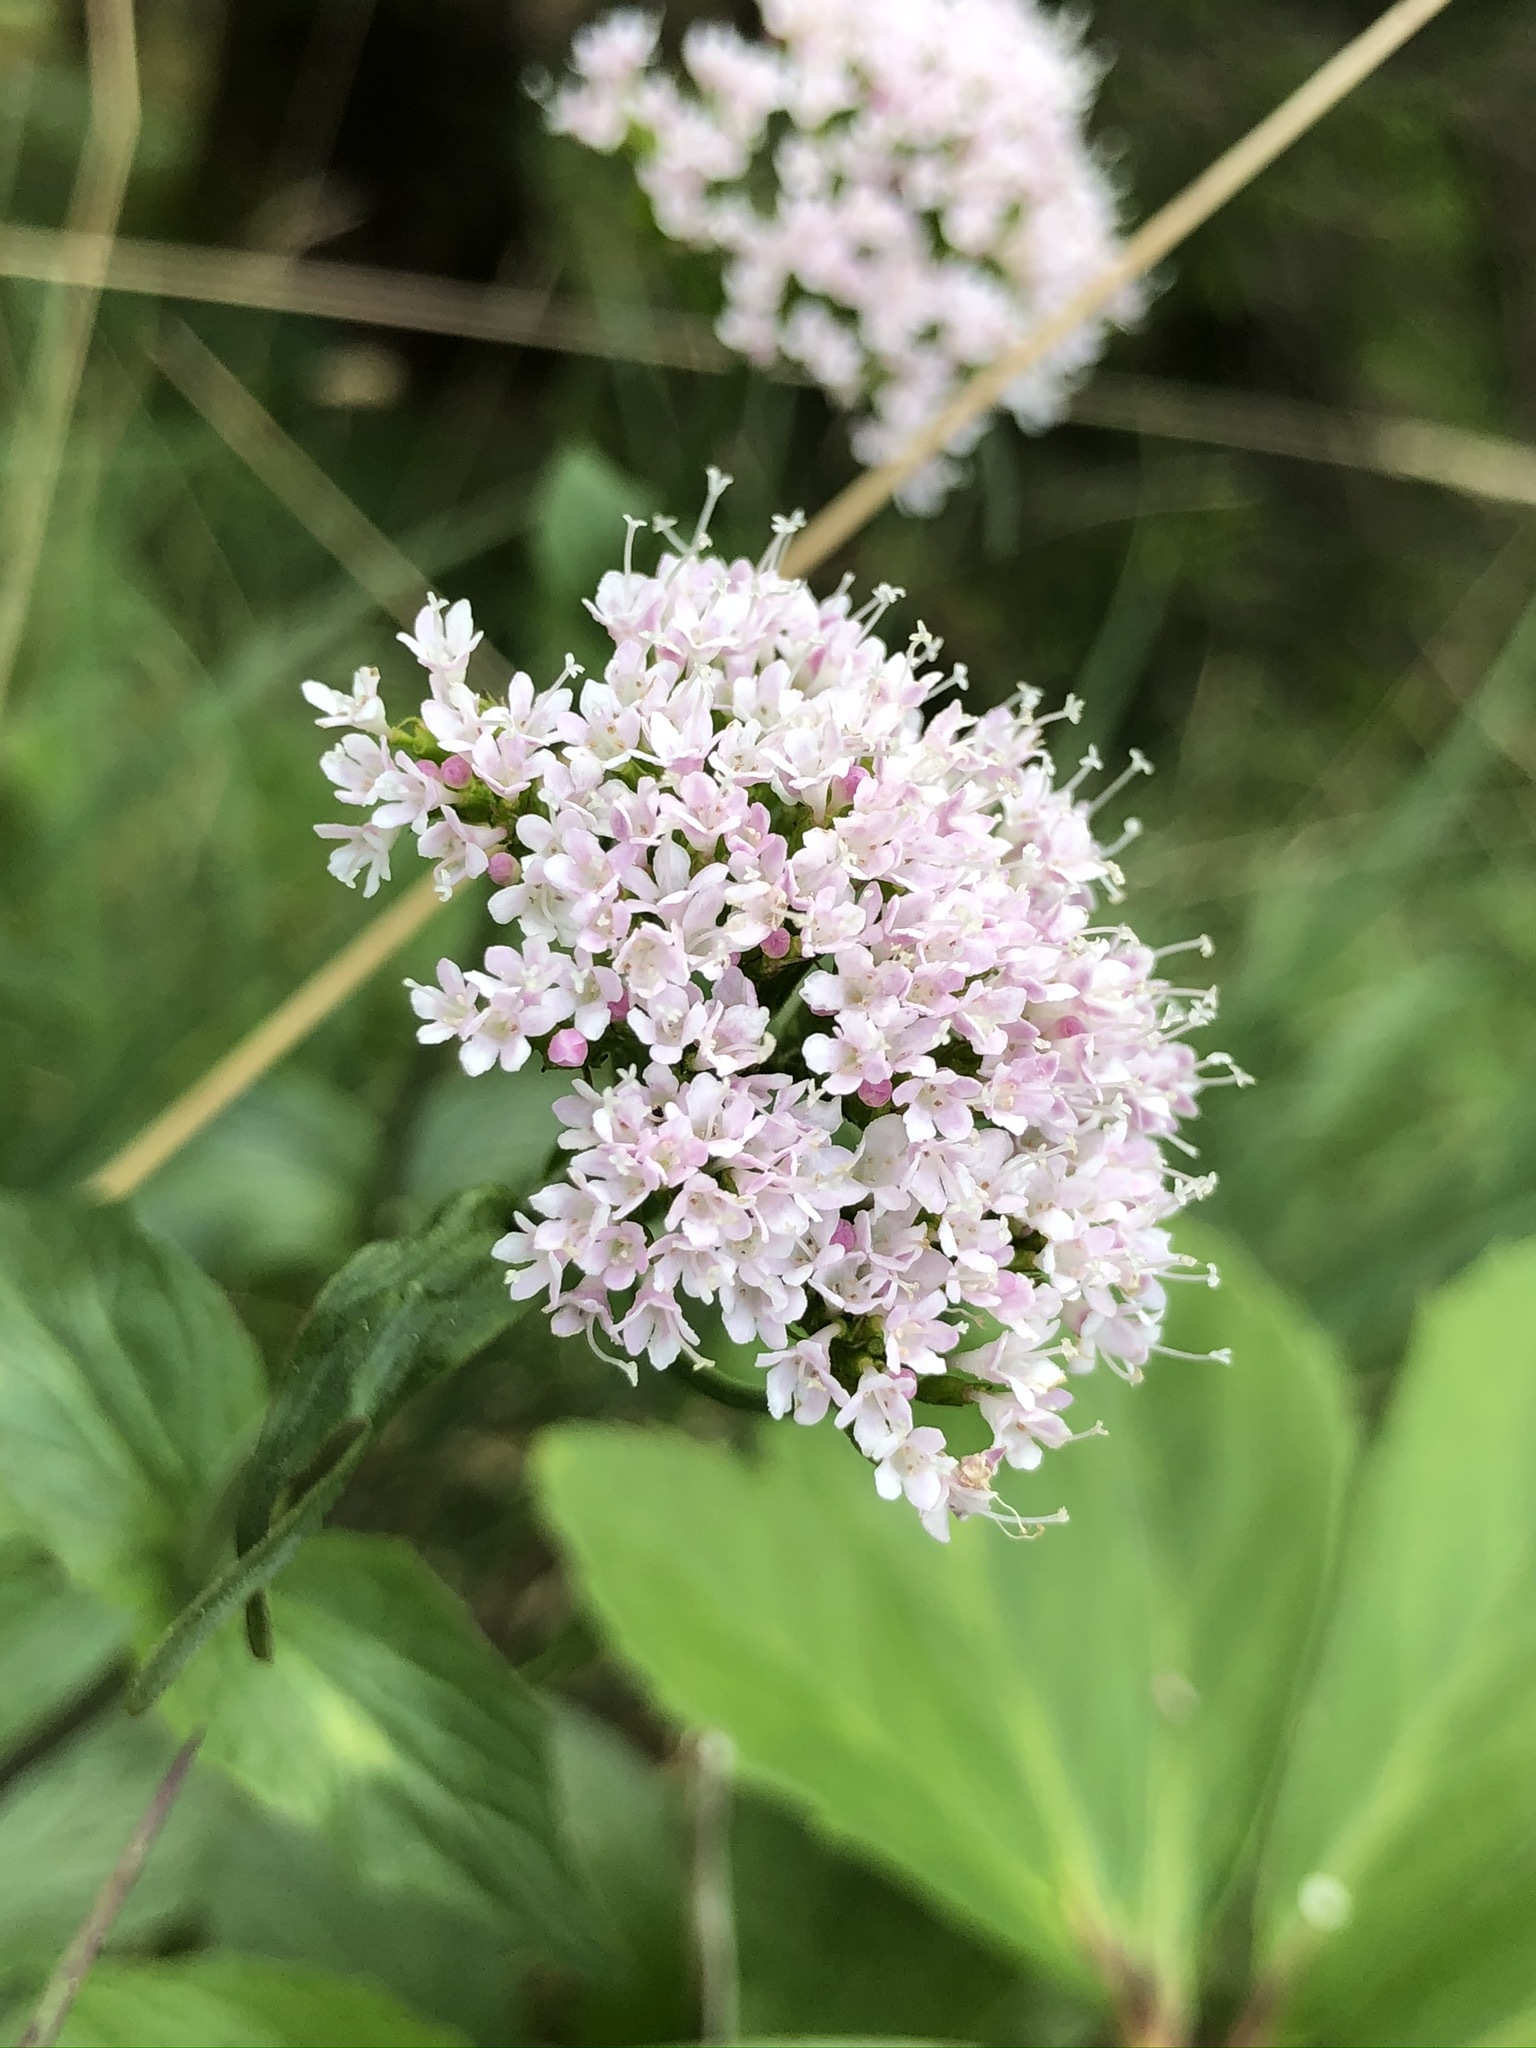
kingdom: Plantae
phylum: Tracheophyta
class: Magnoliopsida
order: Dipsacales
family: Caprifoliaceae
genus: Valeriana
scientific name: Valeriana montana
